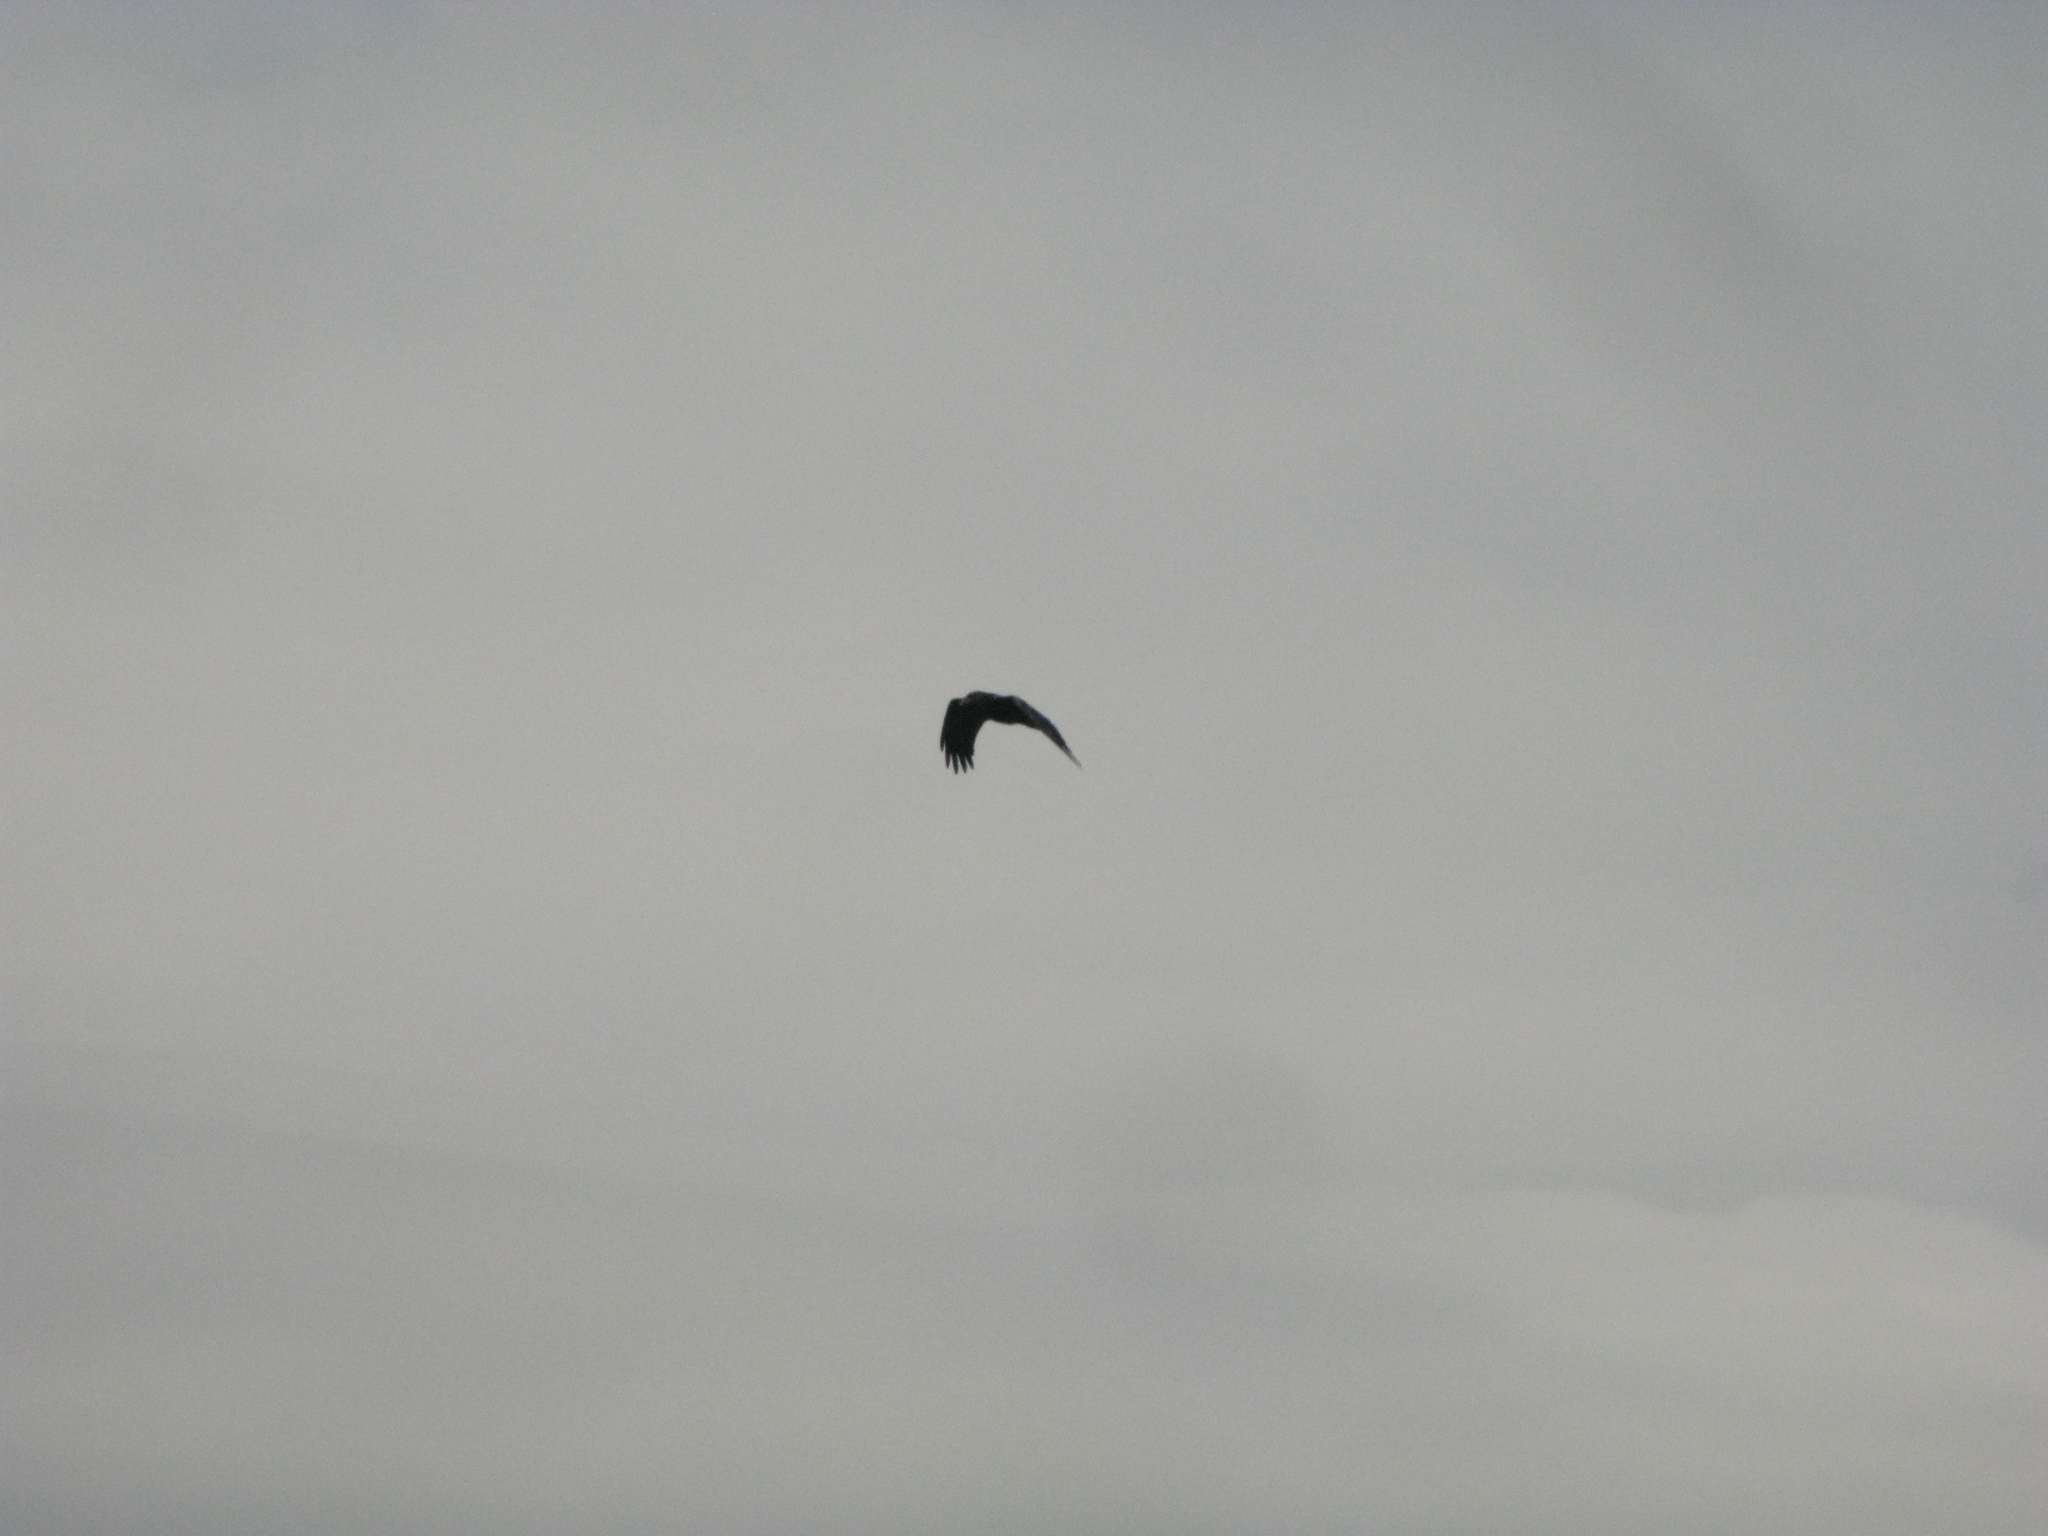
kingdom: Animalia
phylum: Chordata
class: Aves
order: Passeriformes
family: Corvidae
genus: Corvus
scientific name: Corvus corax
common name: Common raven
